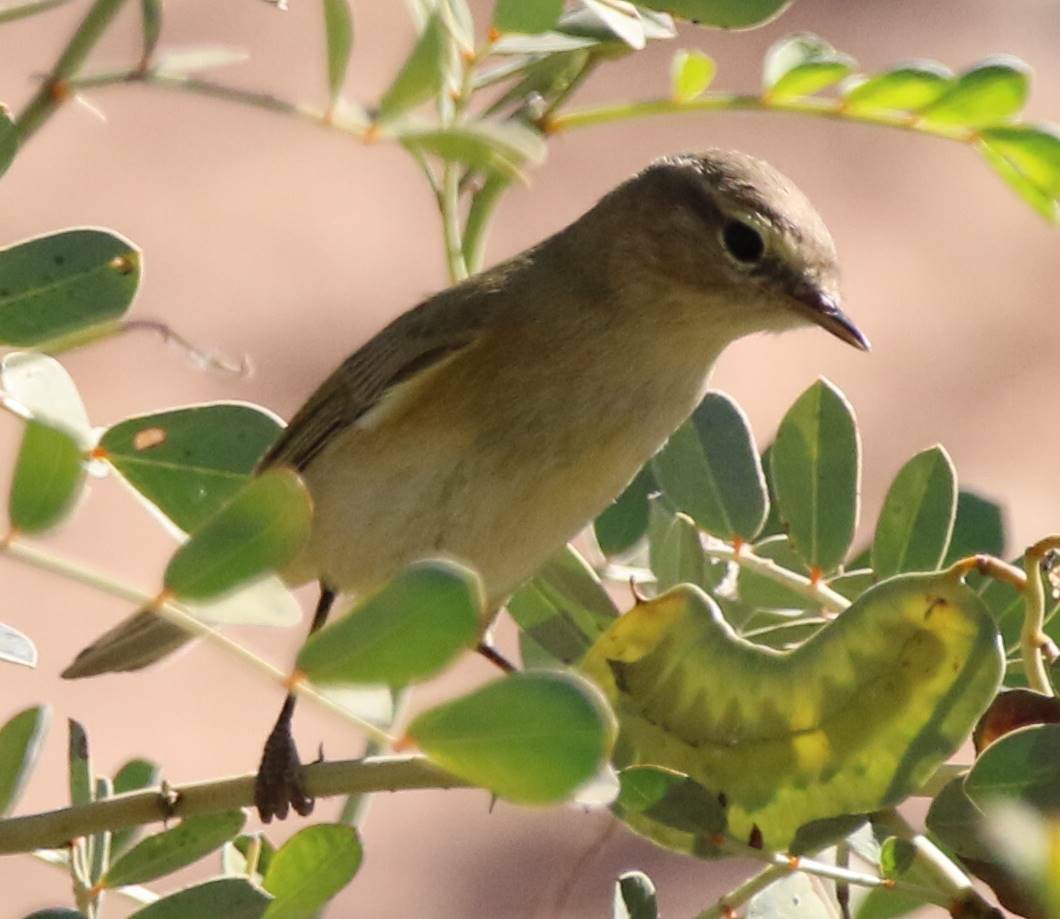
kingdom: Animalia
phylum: Chordata
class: Aves
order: Passeriformes
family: Phylloscopidae
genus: Phylloscopus
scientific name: Phylloscopus collybita
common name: Common chiffchaff
